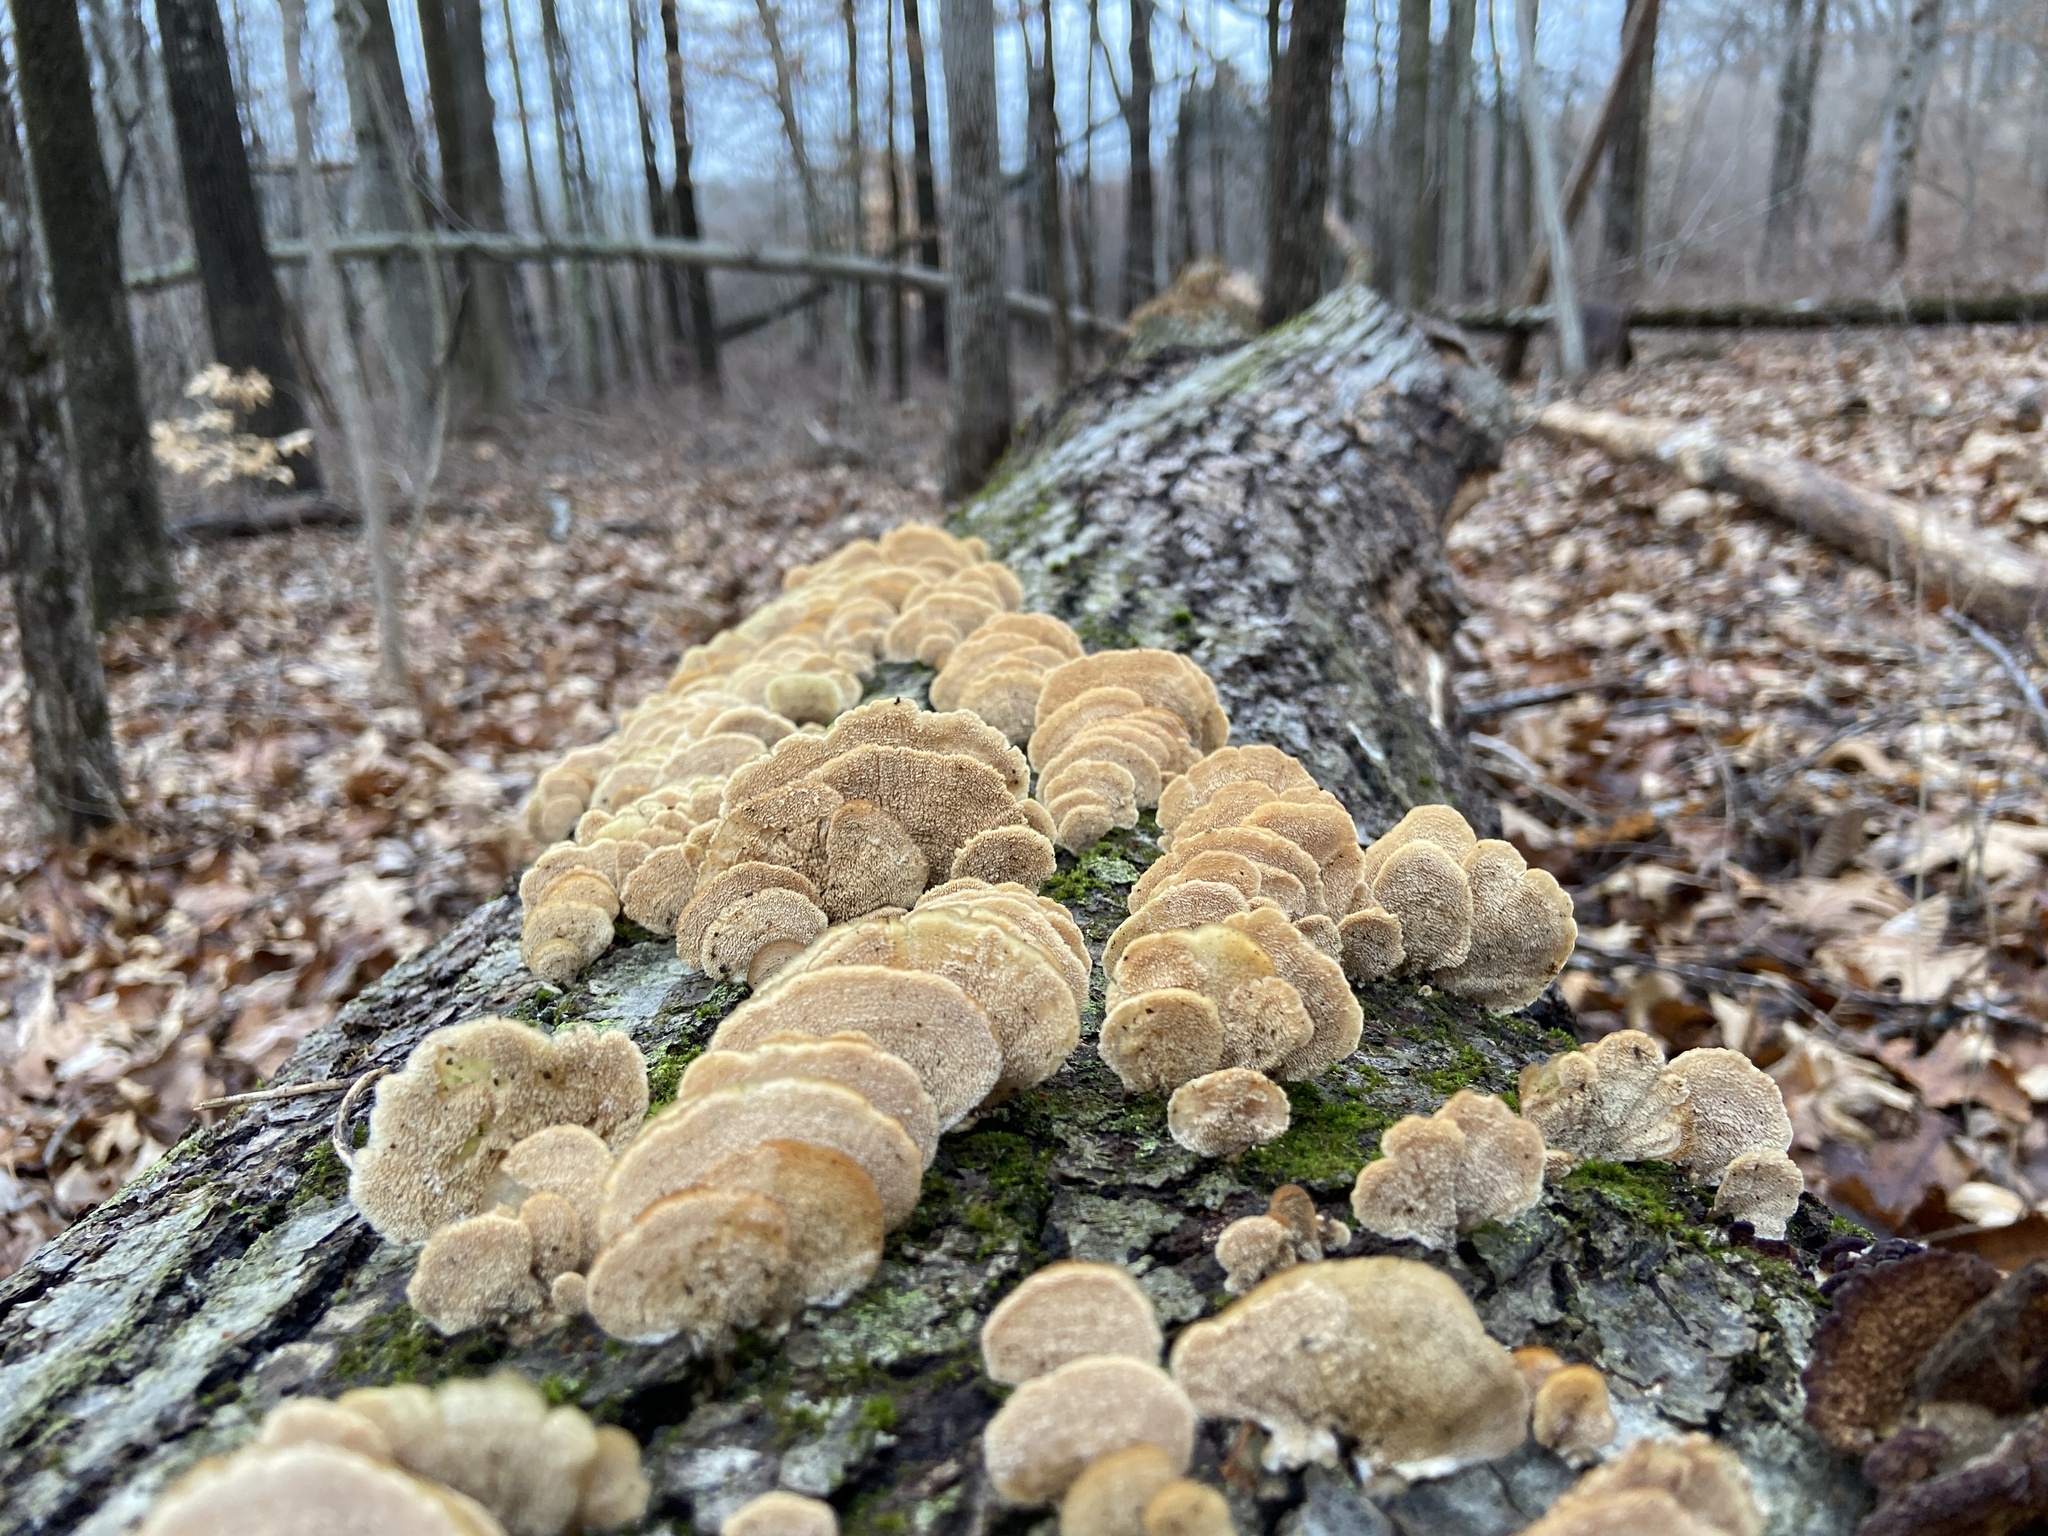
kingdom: Fungi
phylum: Basidiomycota
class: Agaricomycetes
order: Hymenochaetales
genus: Trichaptum
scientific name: Trichaptum biforme
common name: Violet-toothed polypore
